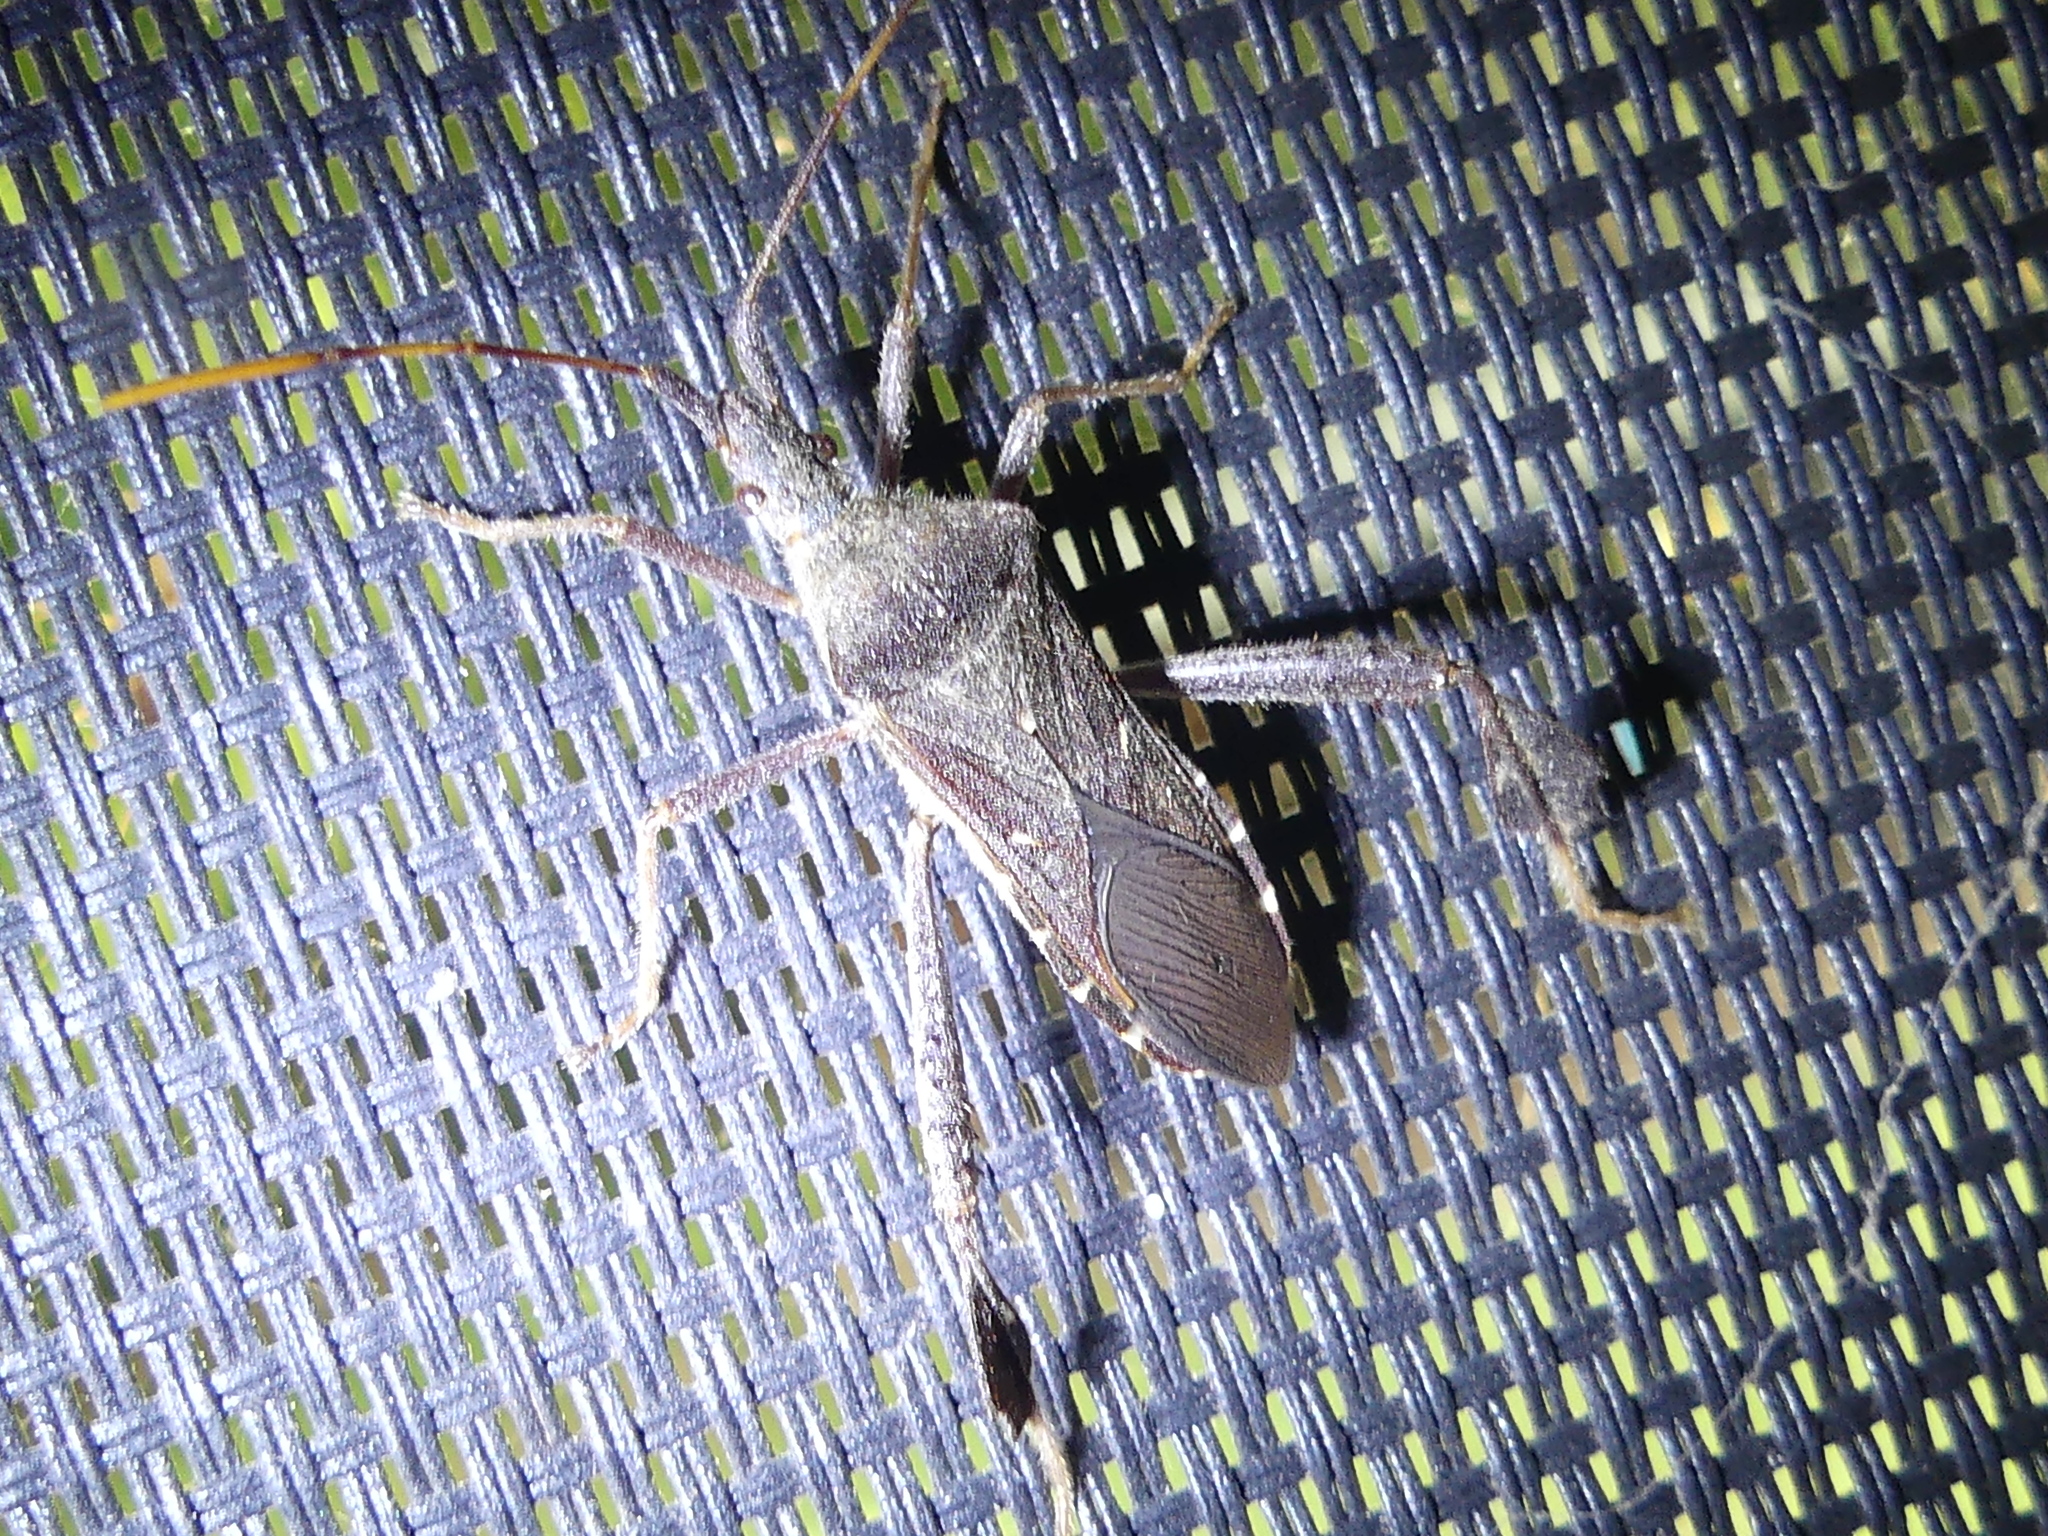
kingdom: Animalia
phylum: Arthropoda
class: Insecta
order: Hemiptera
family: Coreidae
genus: Leptoglossus
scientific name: Leptoglossus oppositus
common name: Northern leaf-footed bug
